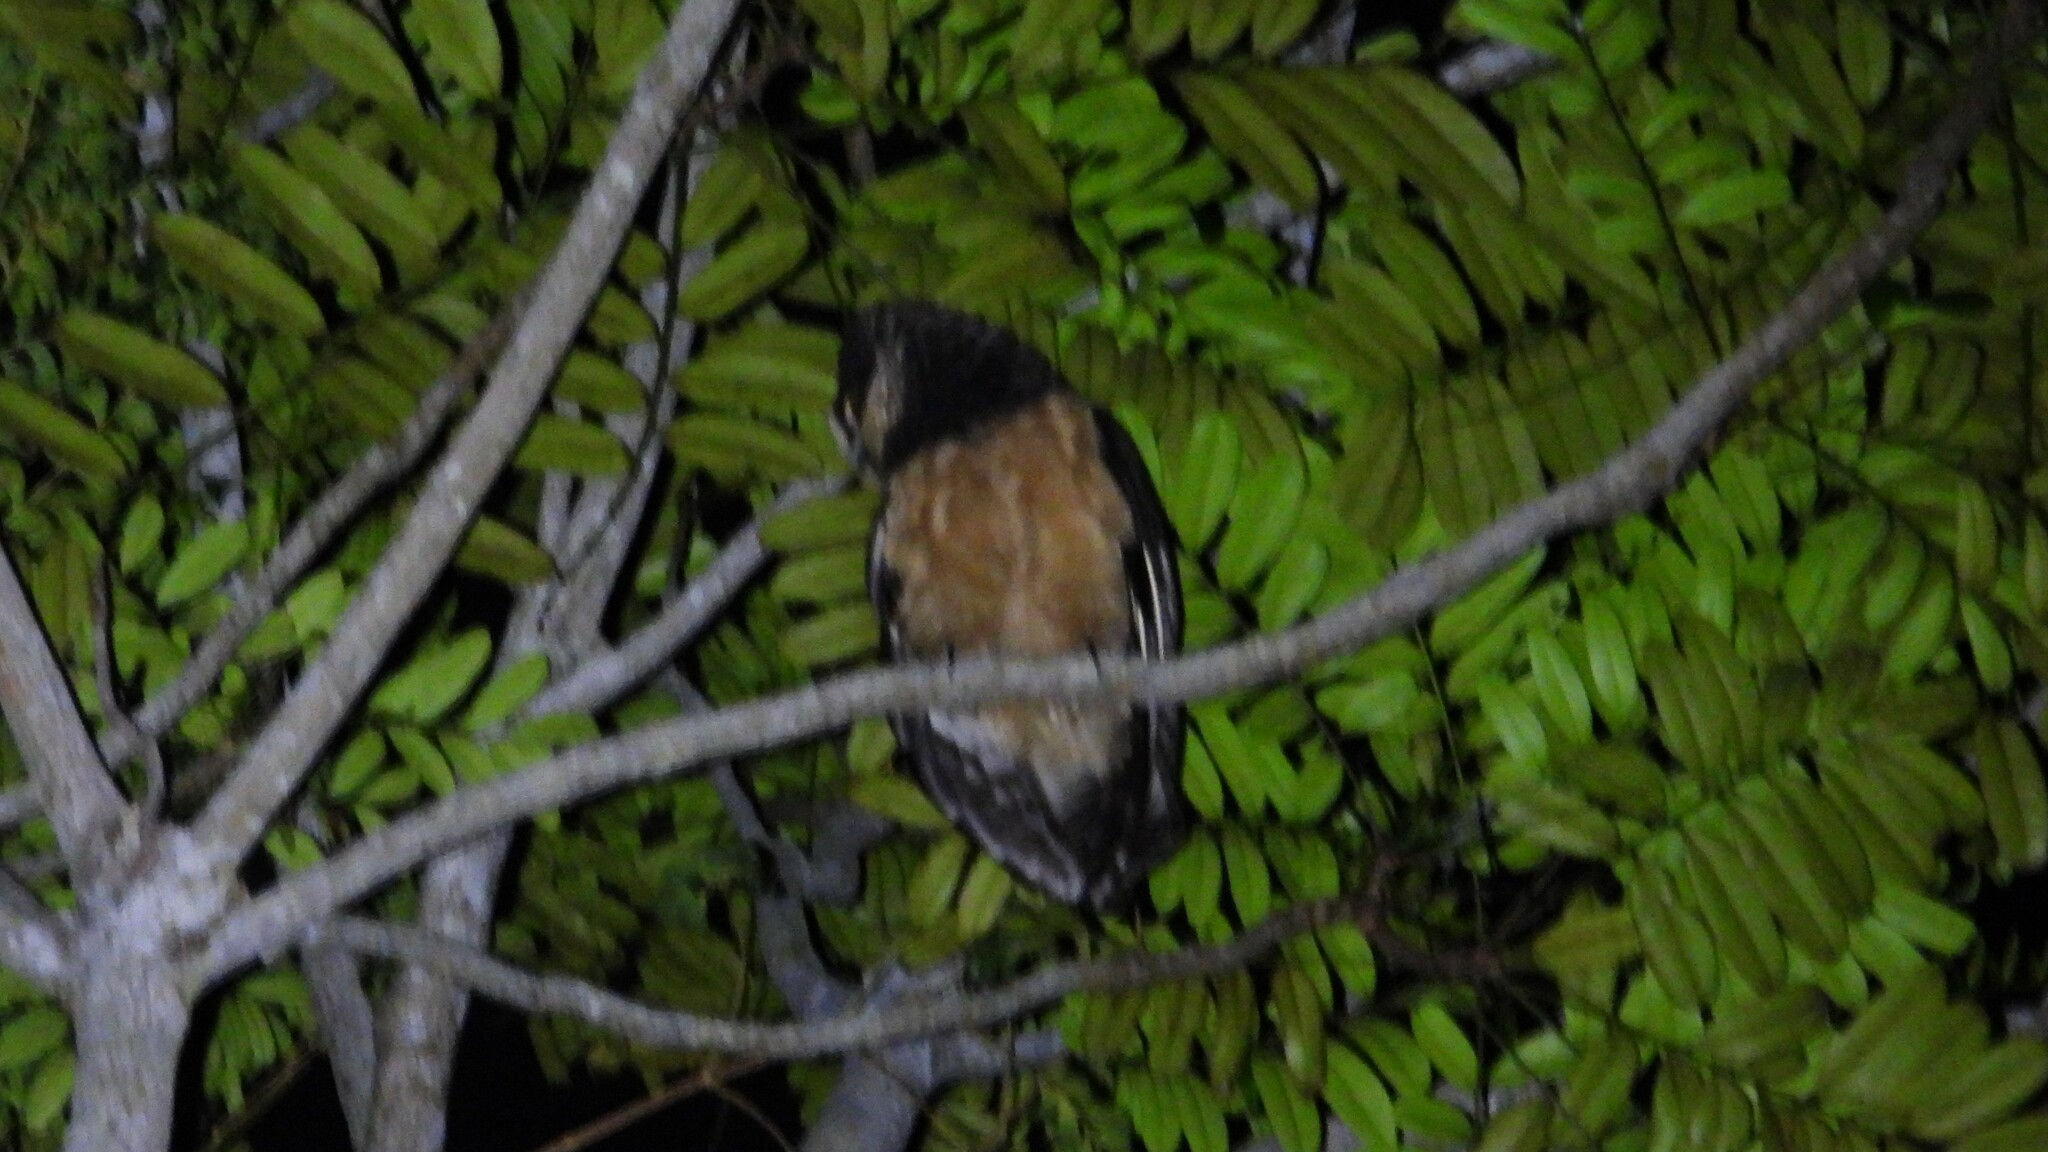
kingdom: Animalia
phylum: Chordata
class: Aves
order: Strigiformes
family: Strigidae
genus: Pulsatrix
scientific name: Pulsatrix perspicillata
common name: Spectacled owl
